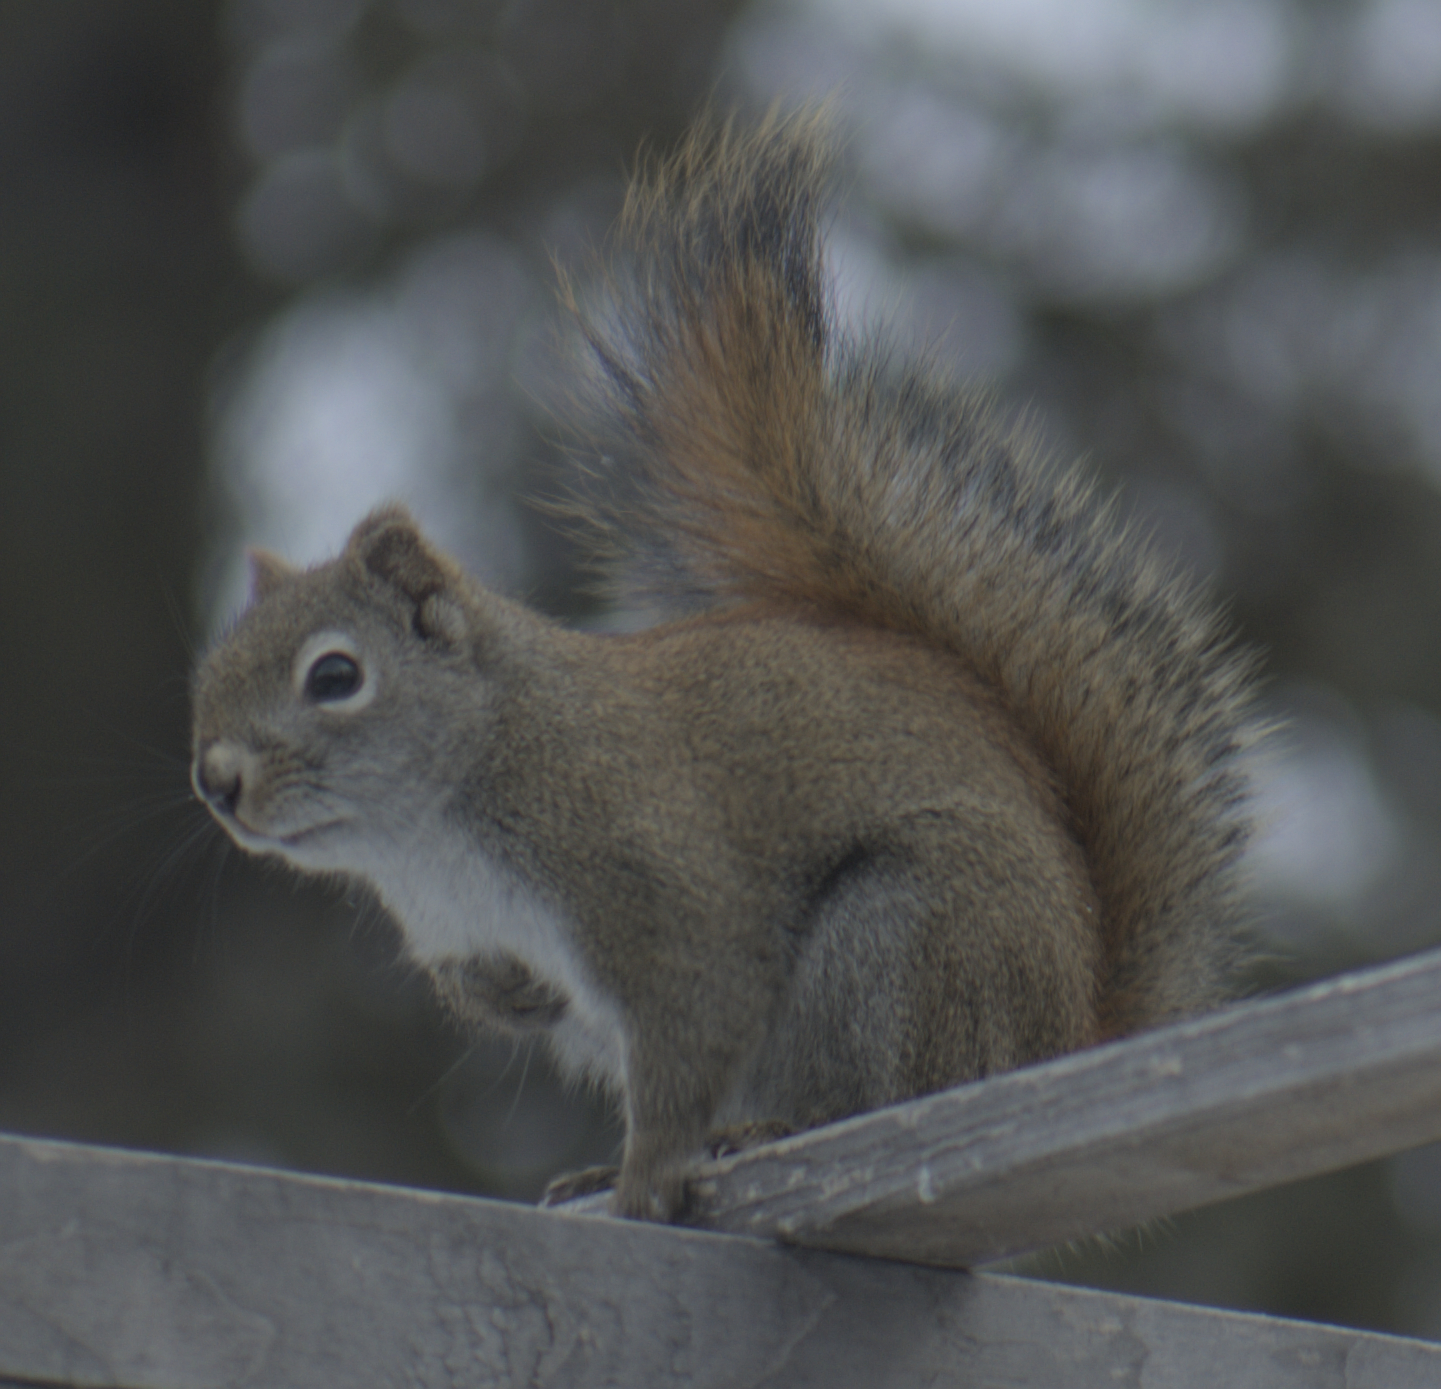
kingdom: Animalia
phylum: Chordata
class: Mammalia
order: Rodentia
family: Sciuridae
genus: Tamiasciurus
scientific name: Tamiasciurus hudsonicus
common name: Red squirrel
